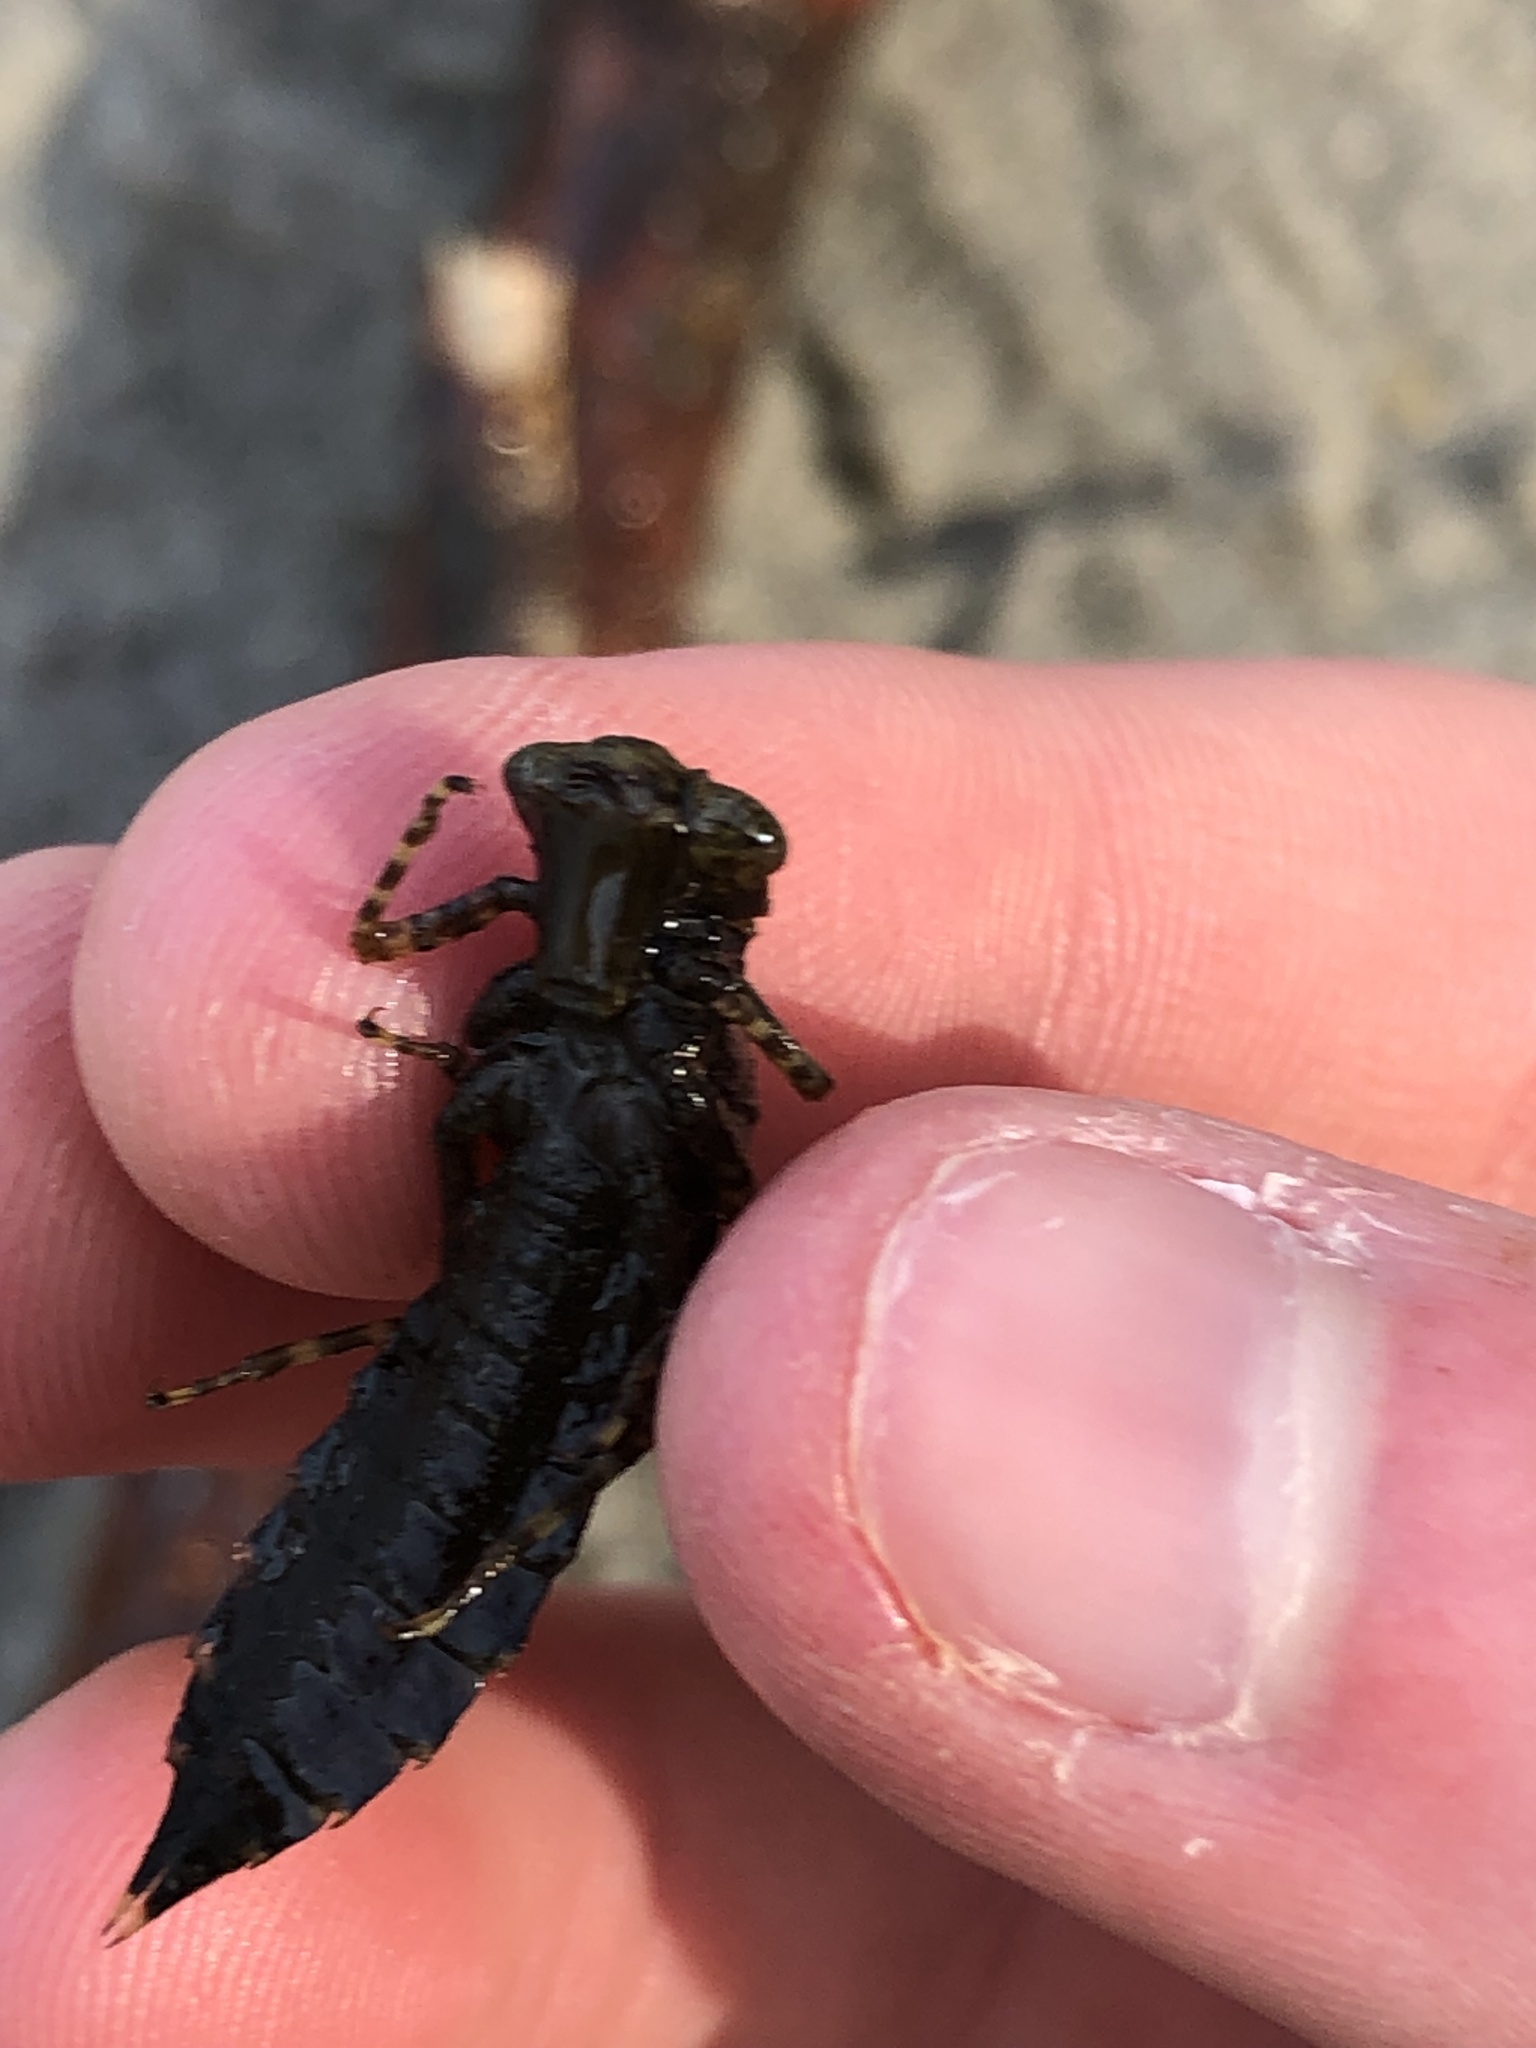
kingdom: Animalia
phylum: Arthropoda
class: Insecta
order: Odonata
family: Aeshnidae
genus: Basiaeschna
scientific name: Basiaeschna janata
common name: Springtime darner
